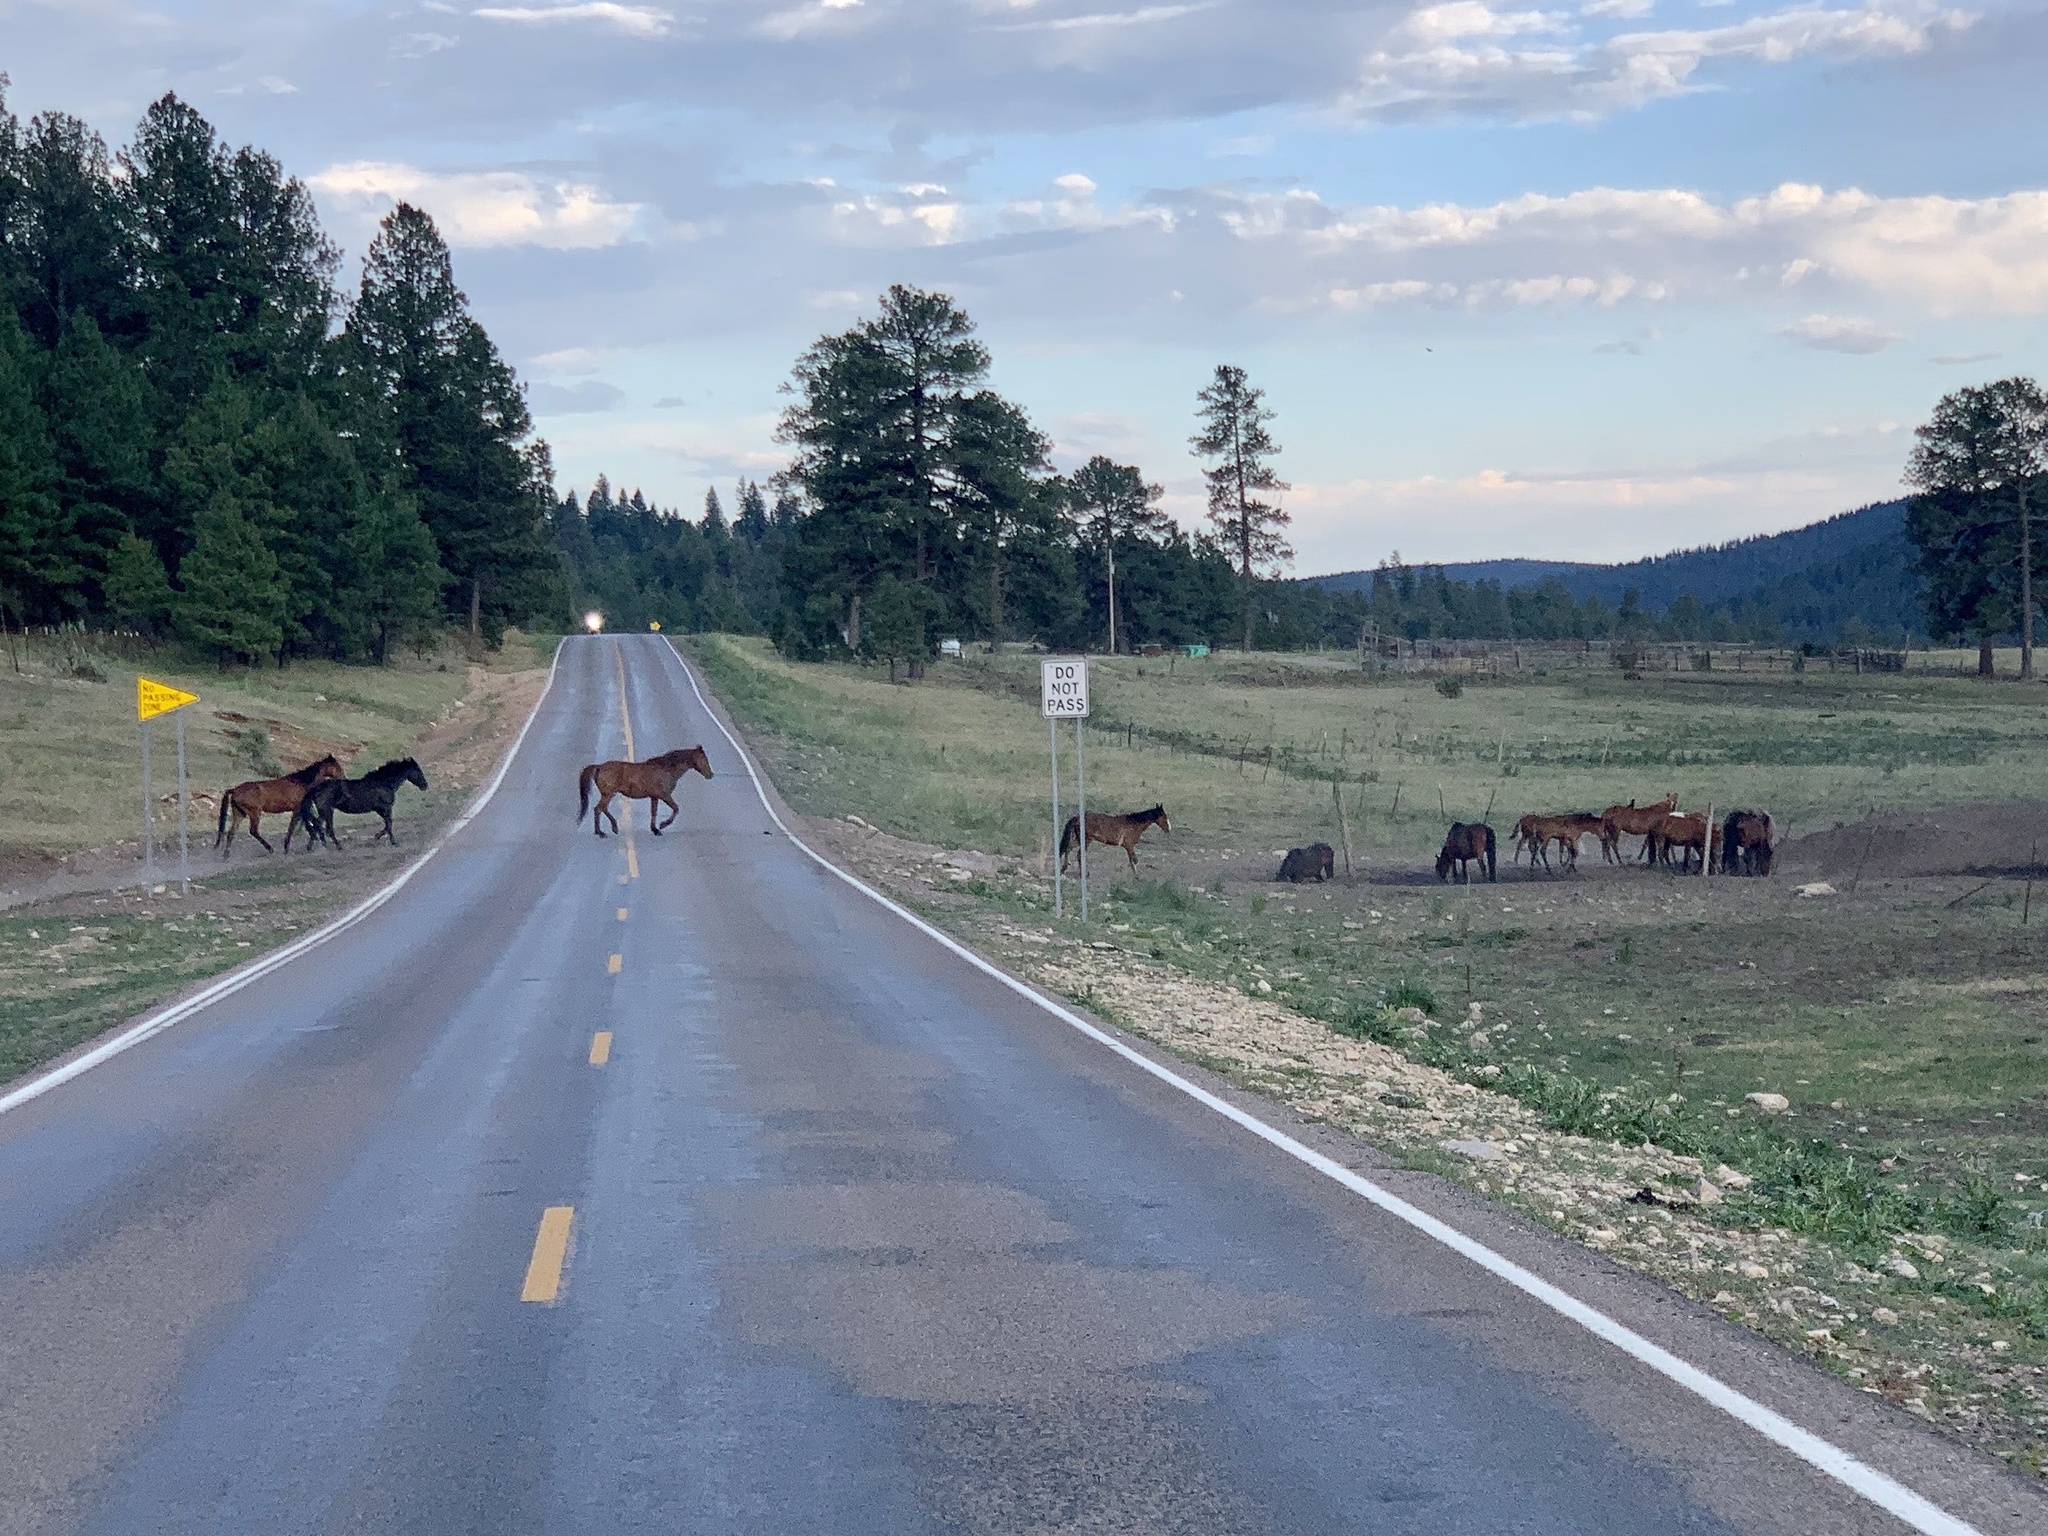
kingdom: Animalia
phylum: Chordata
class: Mammalia
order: Perissodactyla
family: Equidae
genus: Equus
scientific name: Equus caballus
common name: Horse
